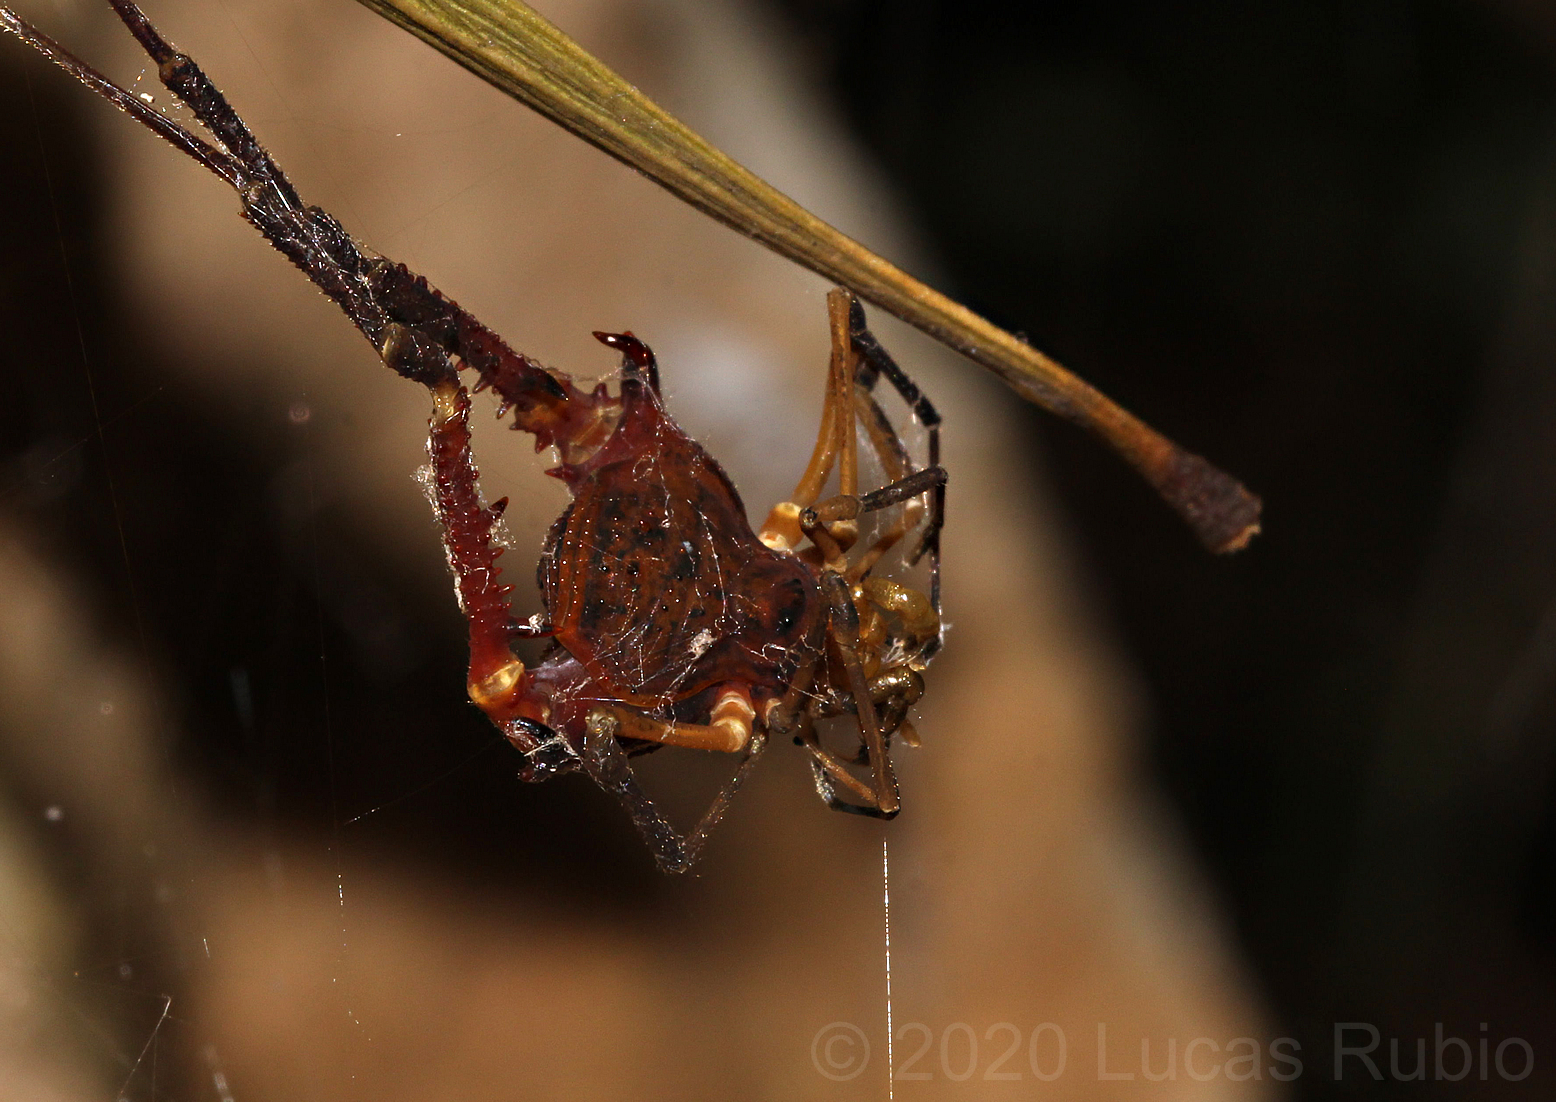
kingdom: Animalia
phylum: Arthropoda
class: Arachnida
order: Opiliones
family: Gonyleptidae
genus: Opisthoplatus
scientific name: Opisthoplatus prospicuus
